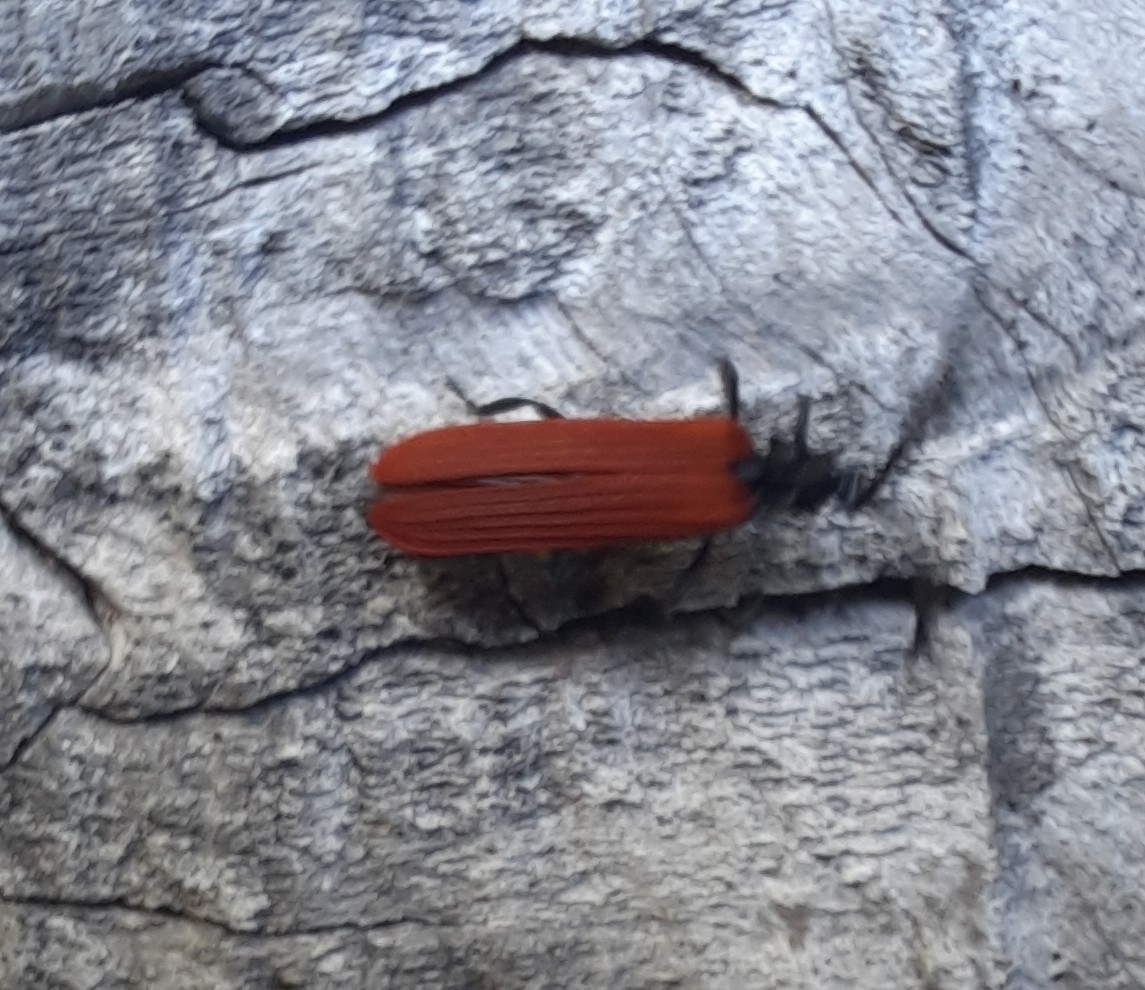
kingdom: Animalia
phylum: Arthropoda
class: Insecta
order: Coleoptera
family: Lycidae
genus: Porrostoma
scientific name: Porrostoma rufipenne
